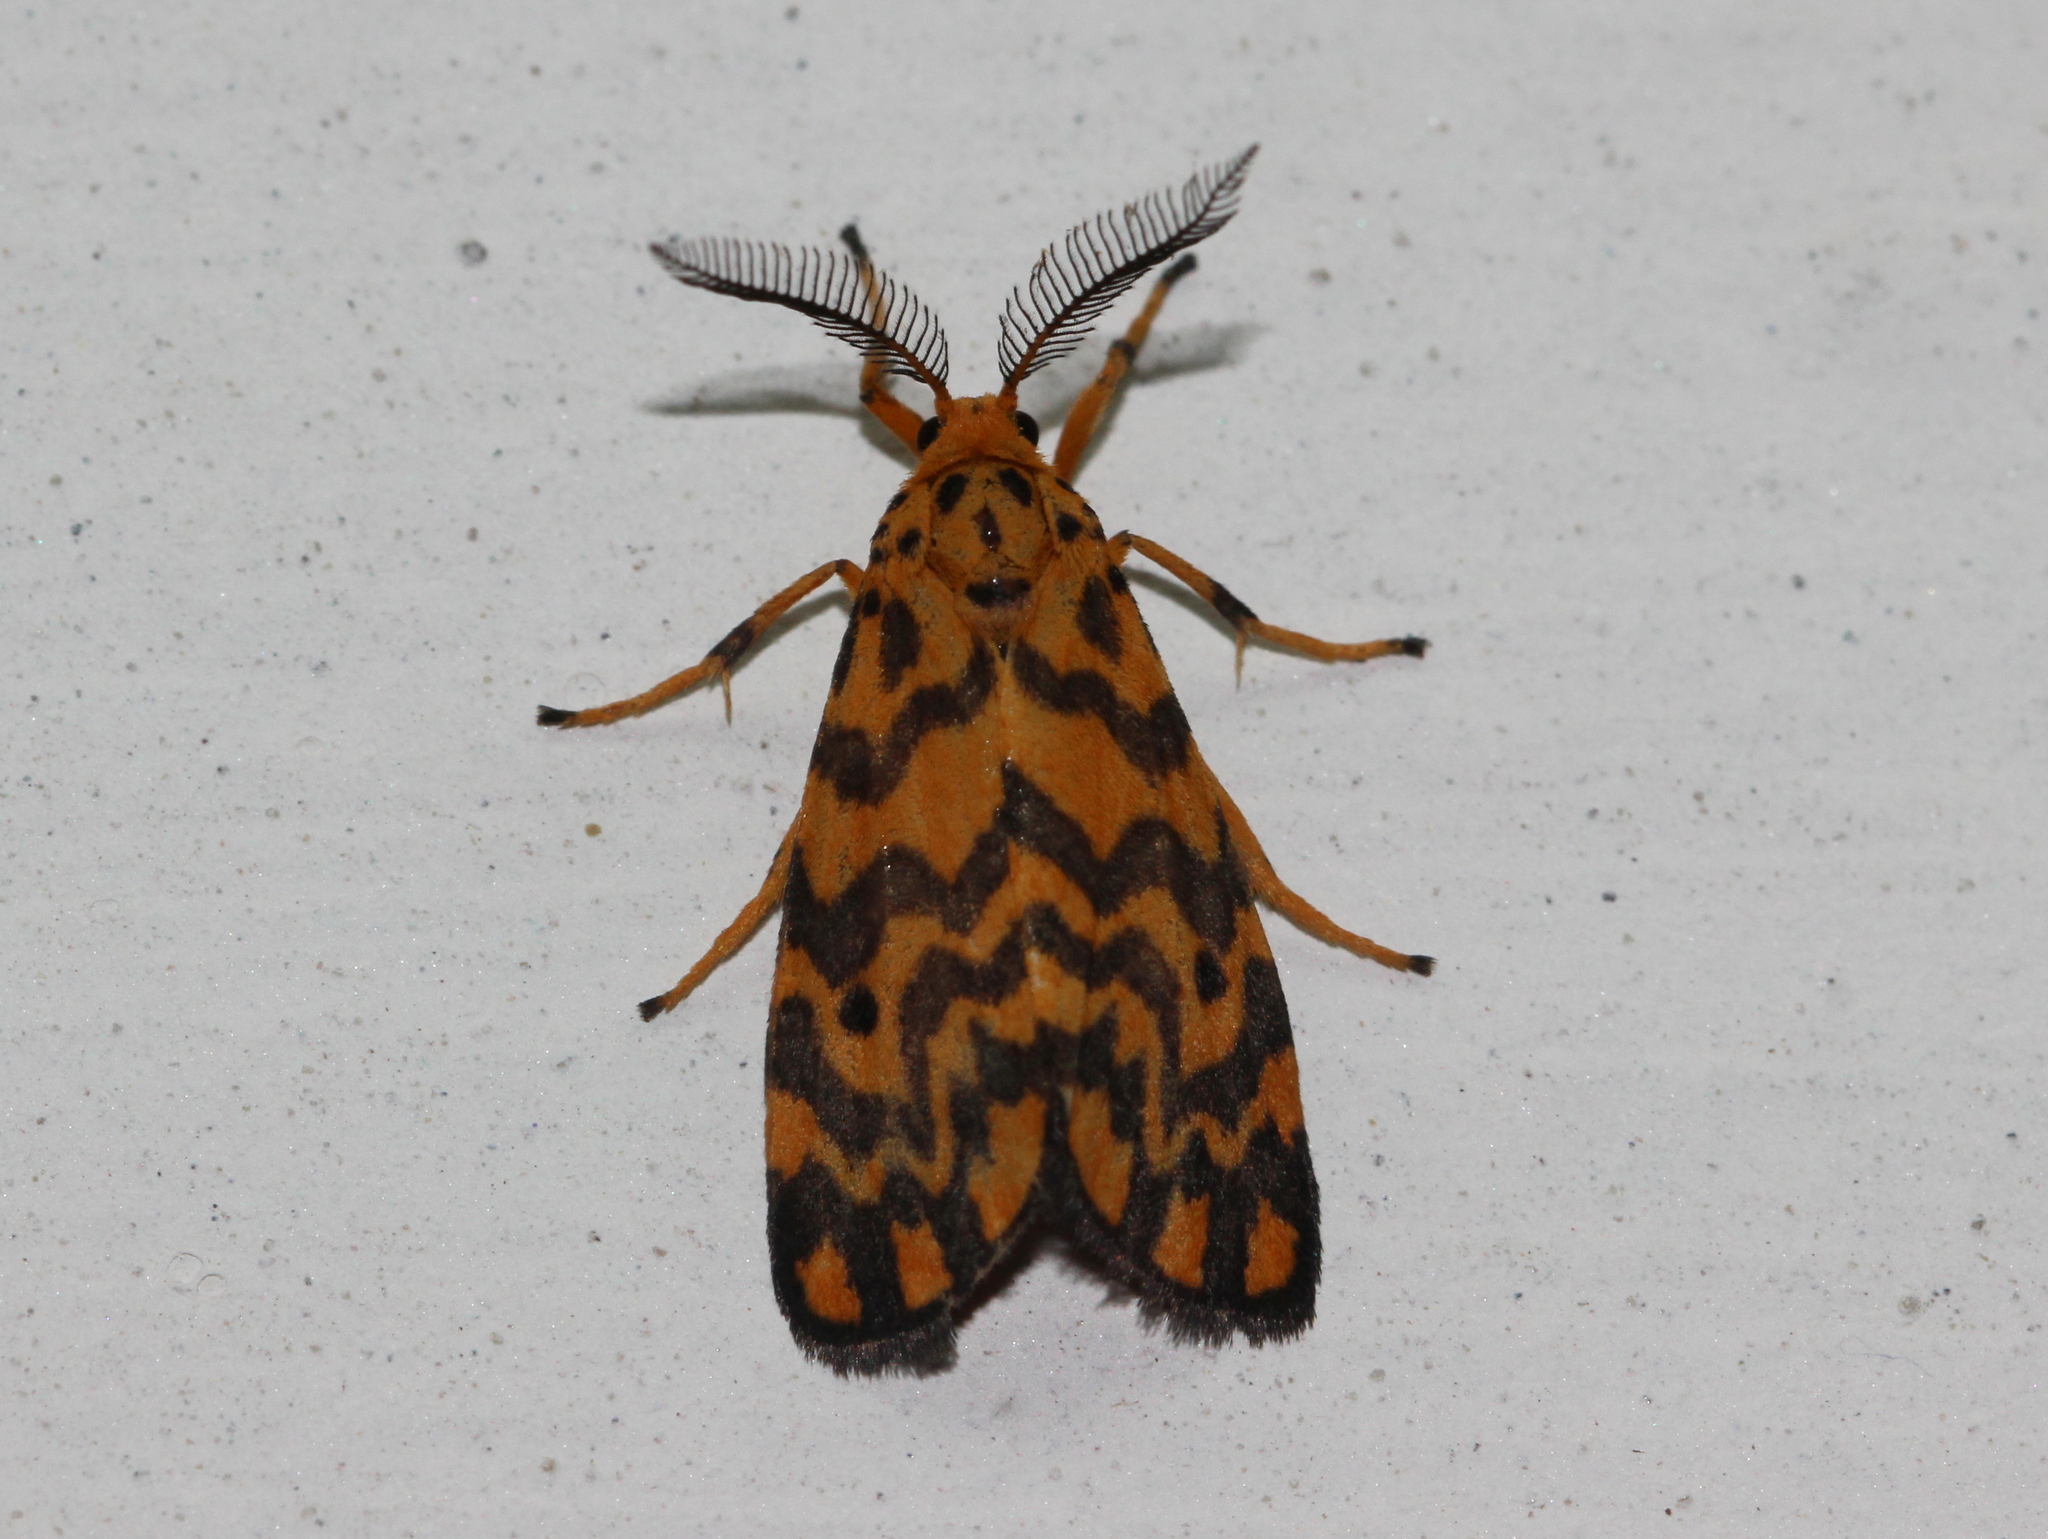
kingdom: Animalia
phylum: Arthropoda
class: Insecta
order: Lepidoptera
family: Erebidae
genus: Nepita
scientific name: Nepita conferta
